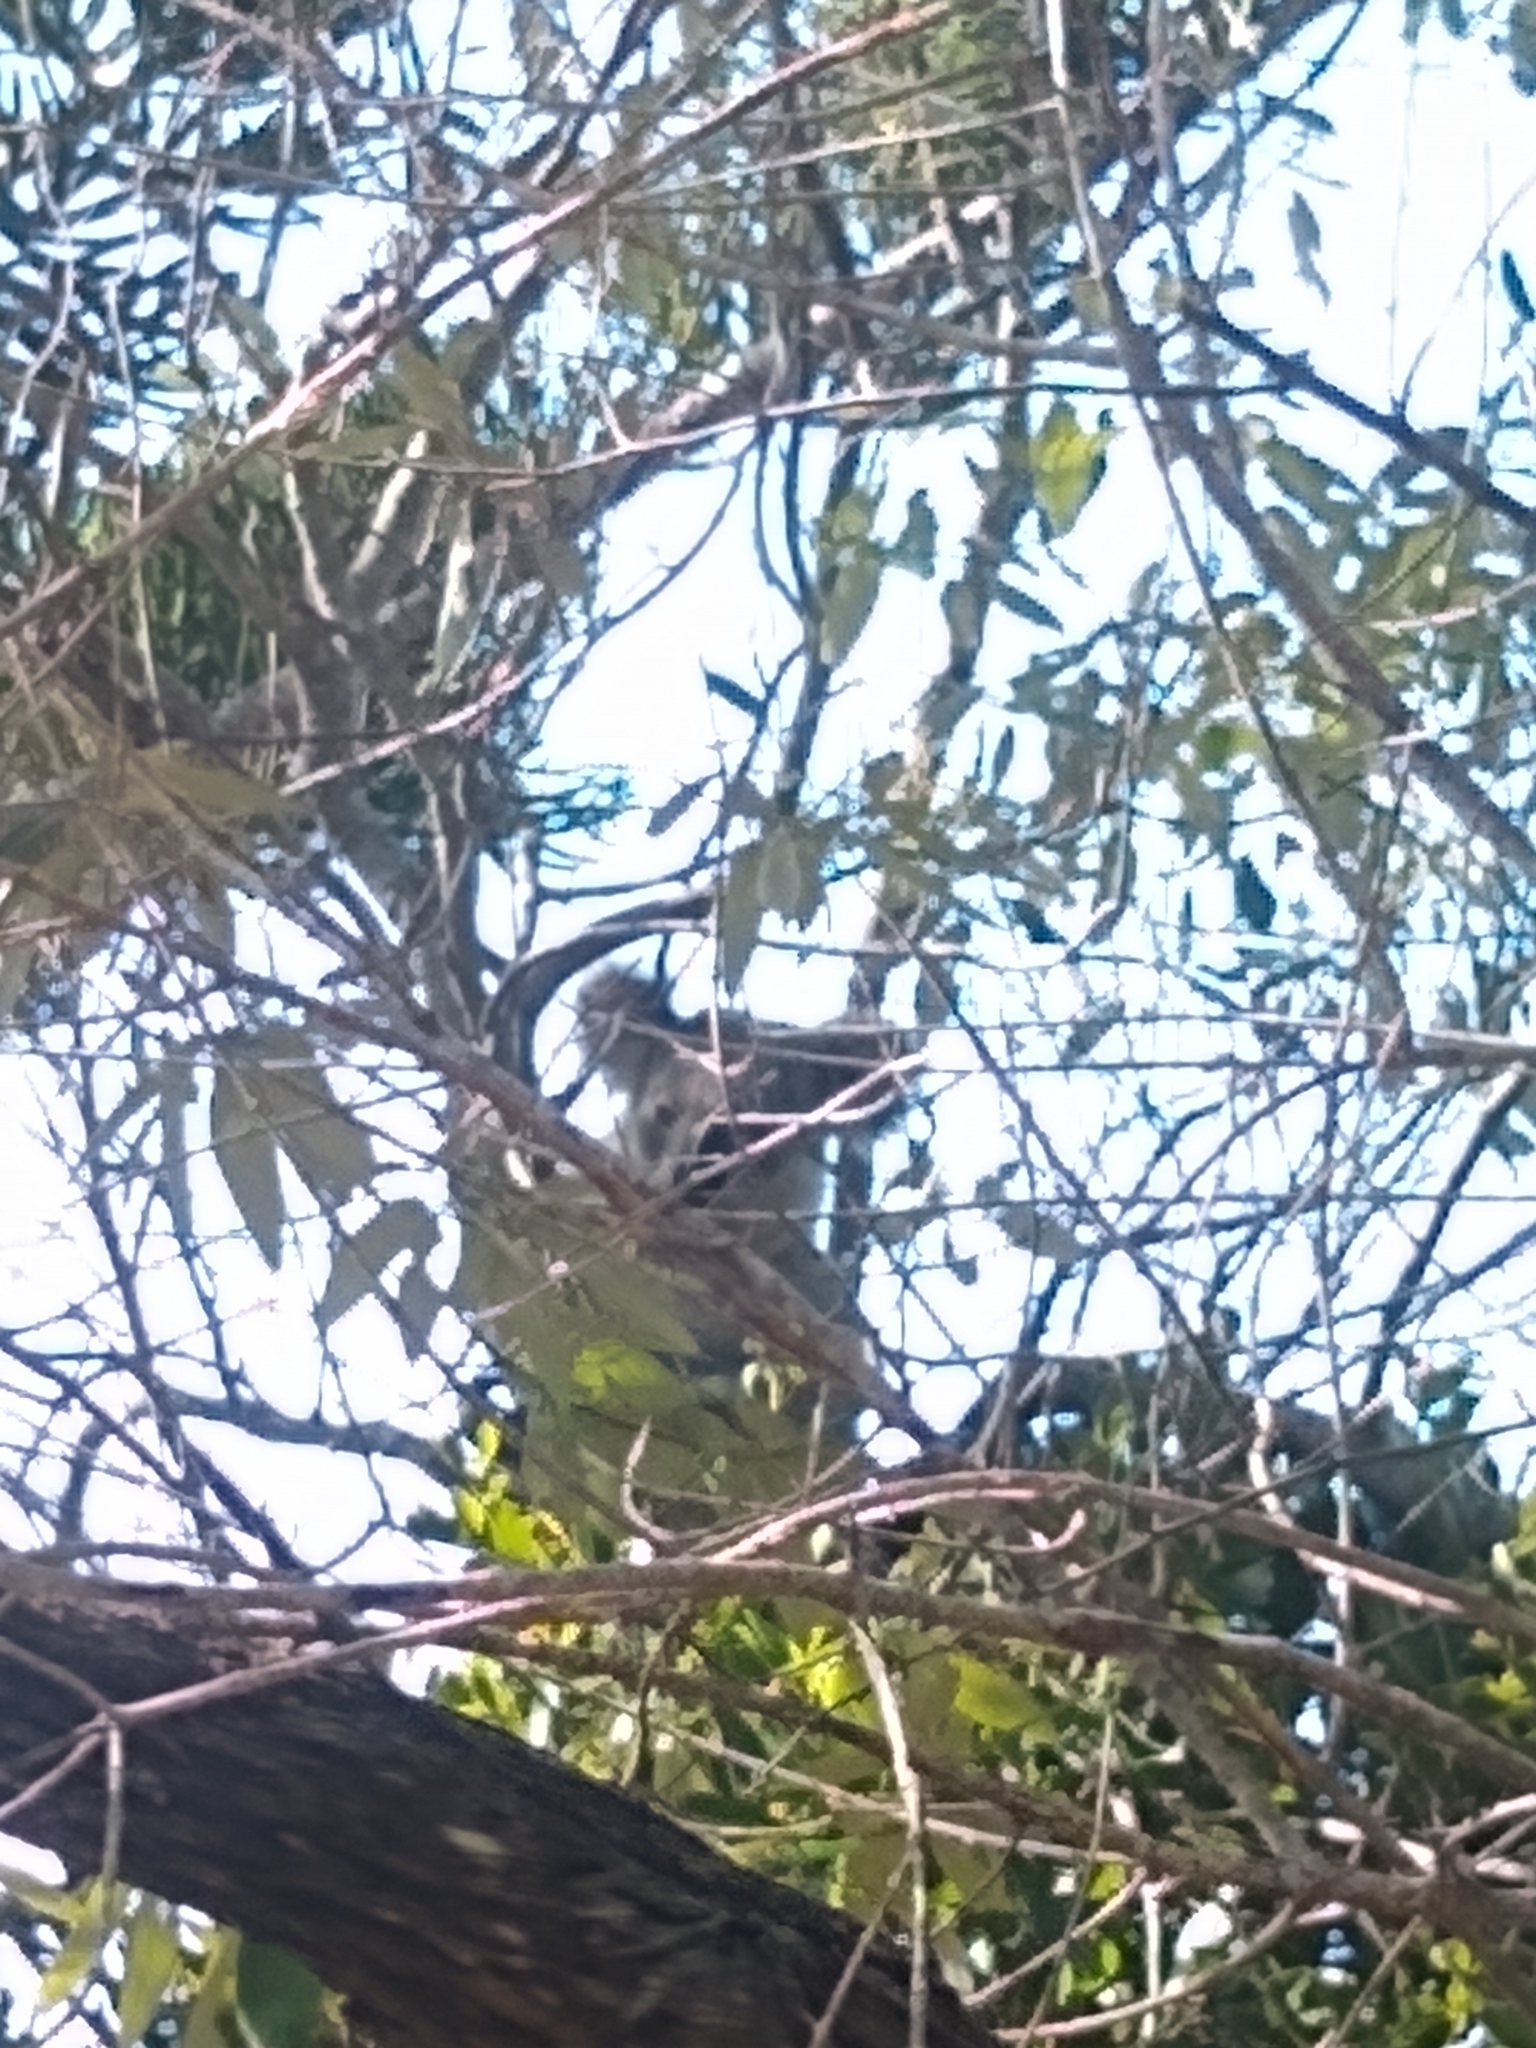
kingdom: Animalia
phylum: Chordata
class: Mammalia
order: Diprotodontia
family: Phascolarctidae
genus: Phascolarctos
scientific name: Phascolarctos cinereus
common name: Koala
